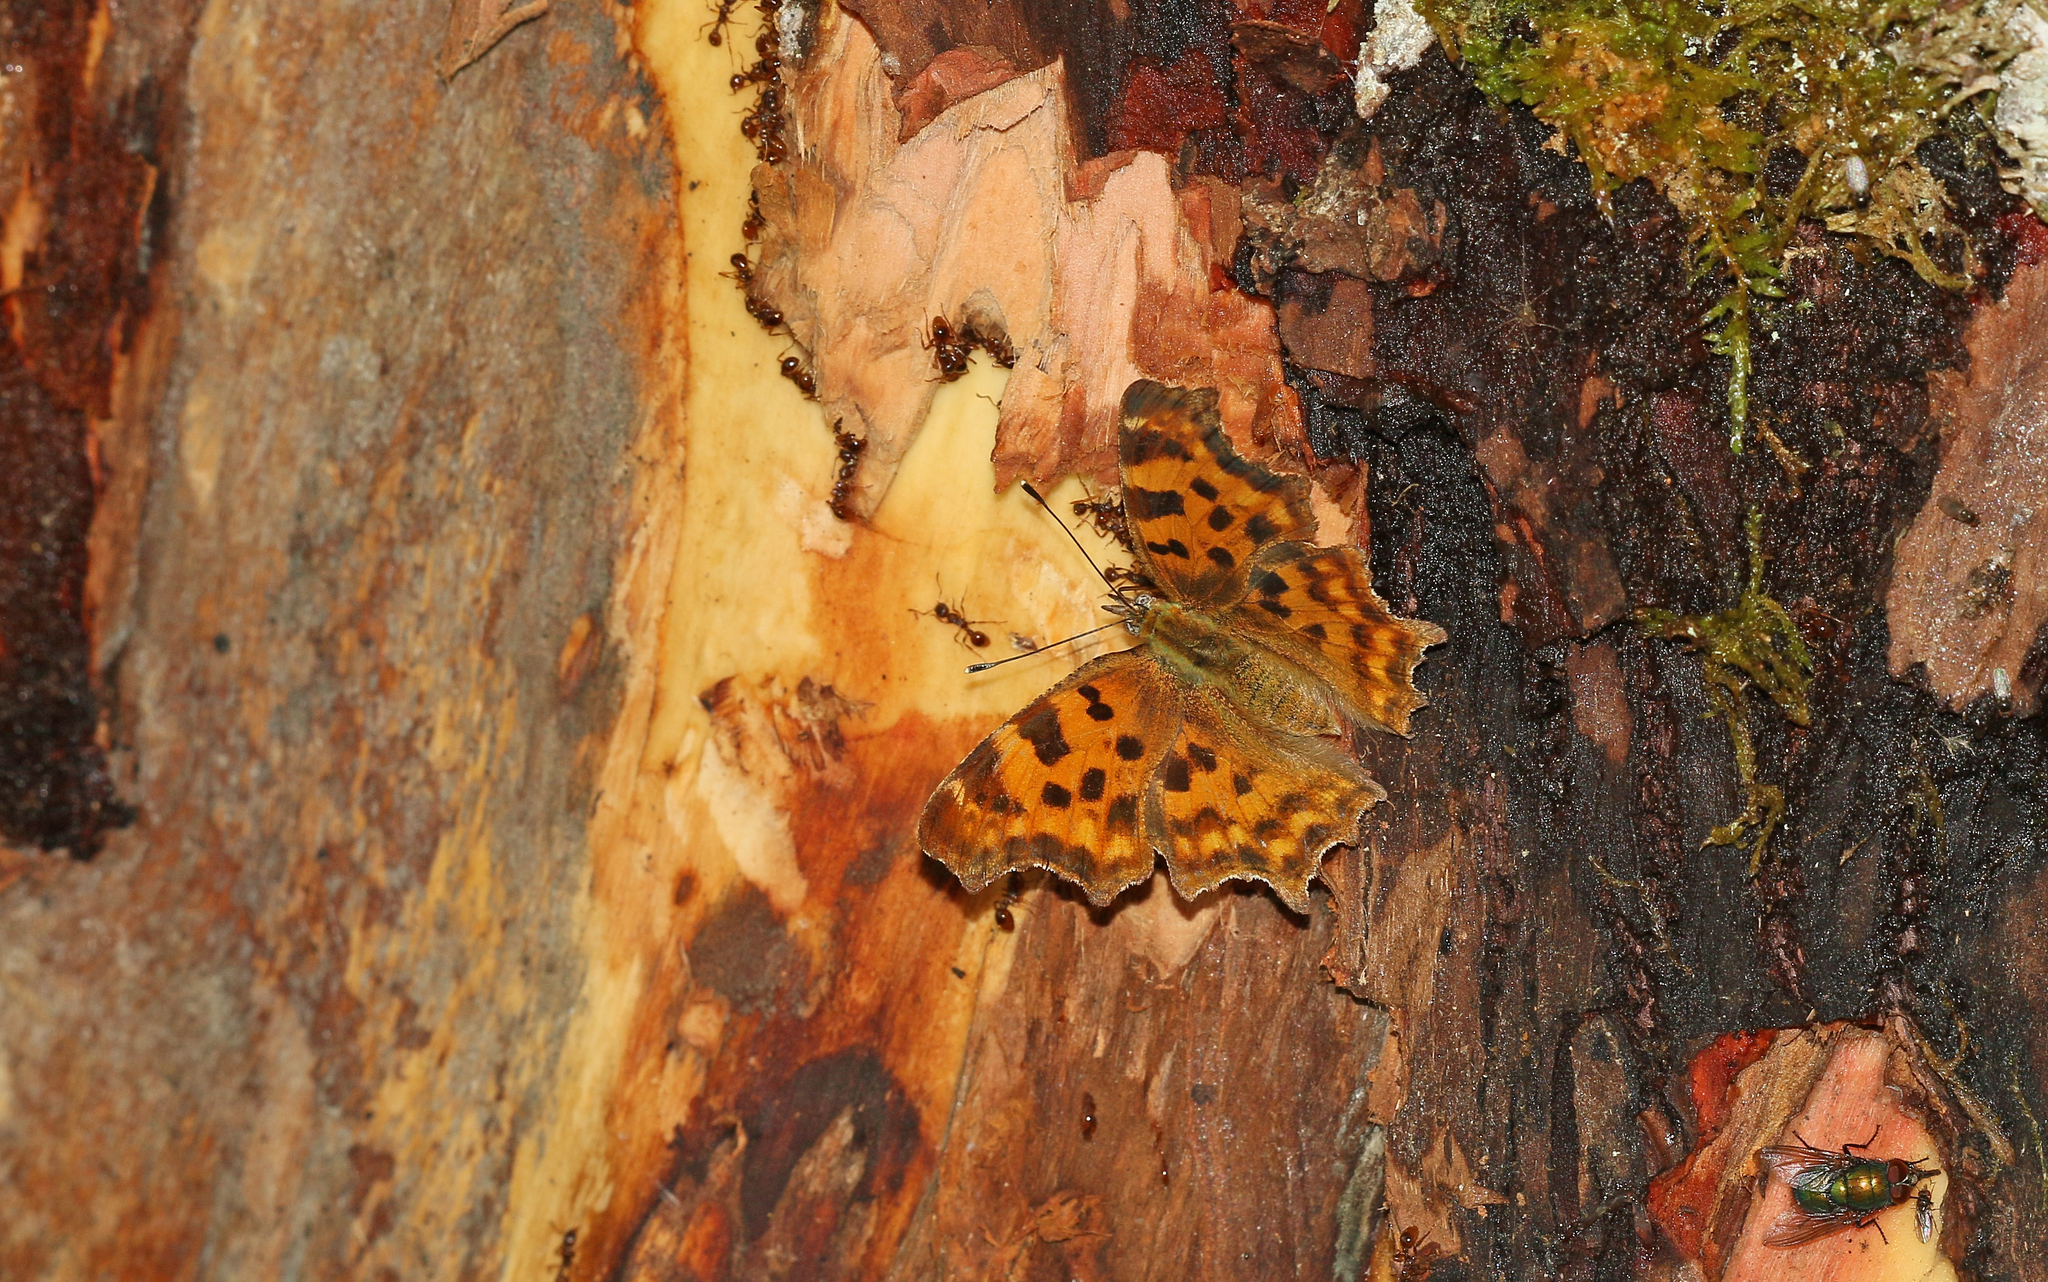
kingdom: Animalia
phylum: Arthropoda
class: Insecta
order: Lepidoptera
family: Nymphalidae
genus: Polygonia
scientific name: Polygonia c-album
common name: Comma
